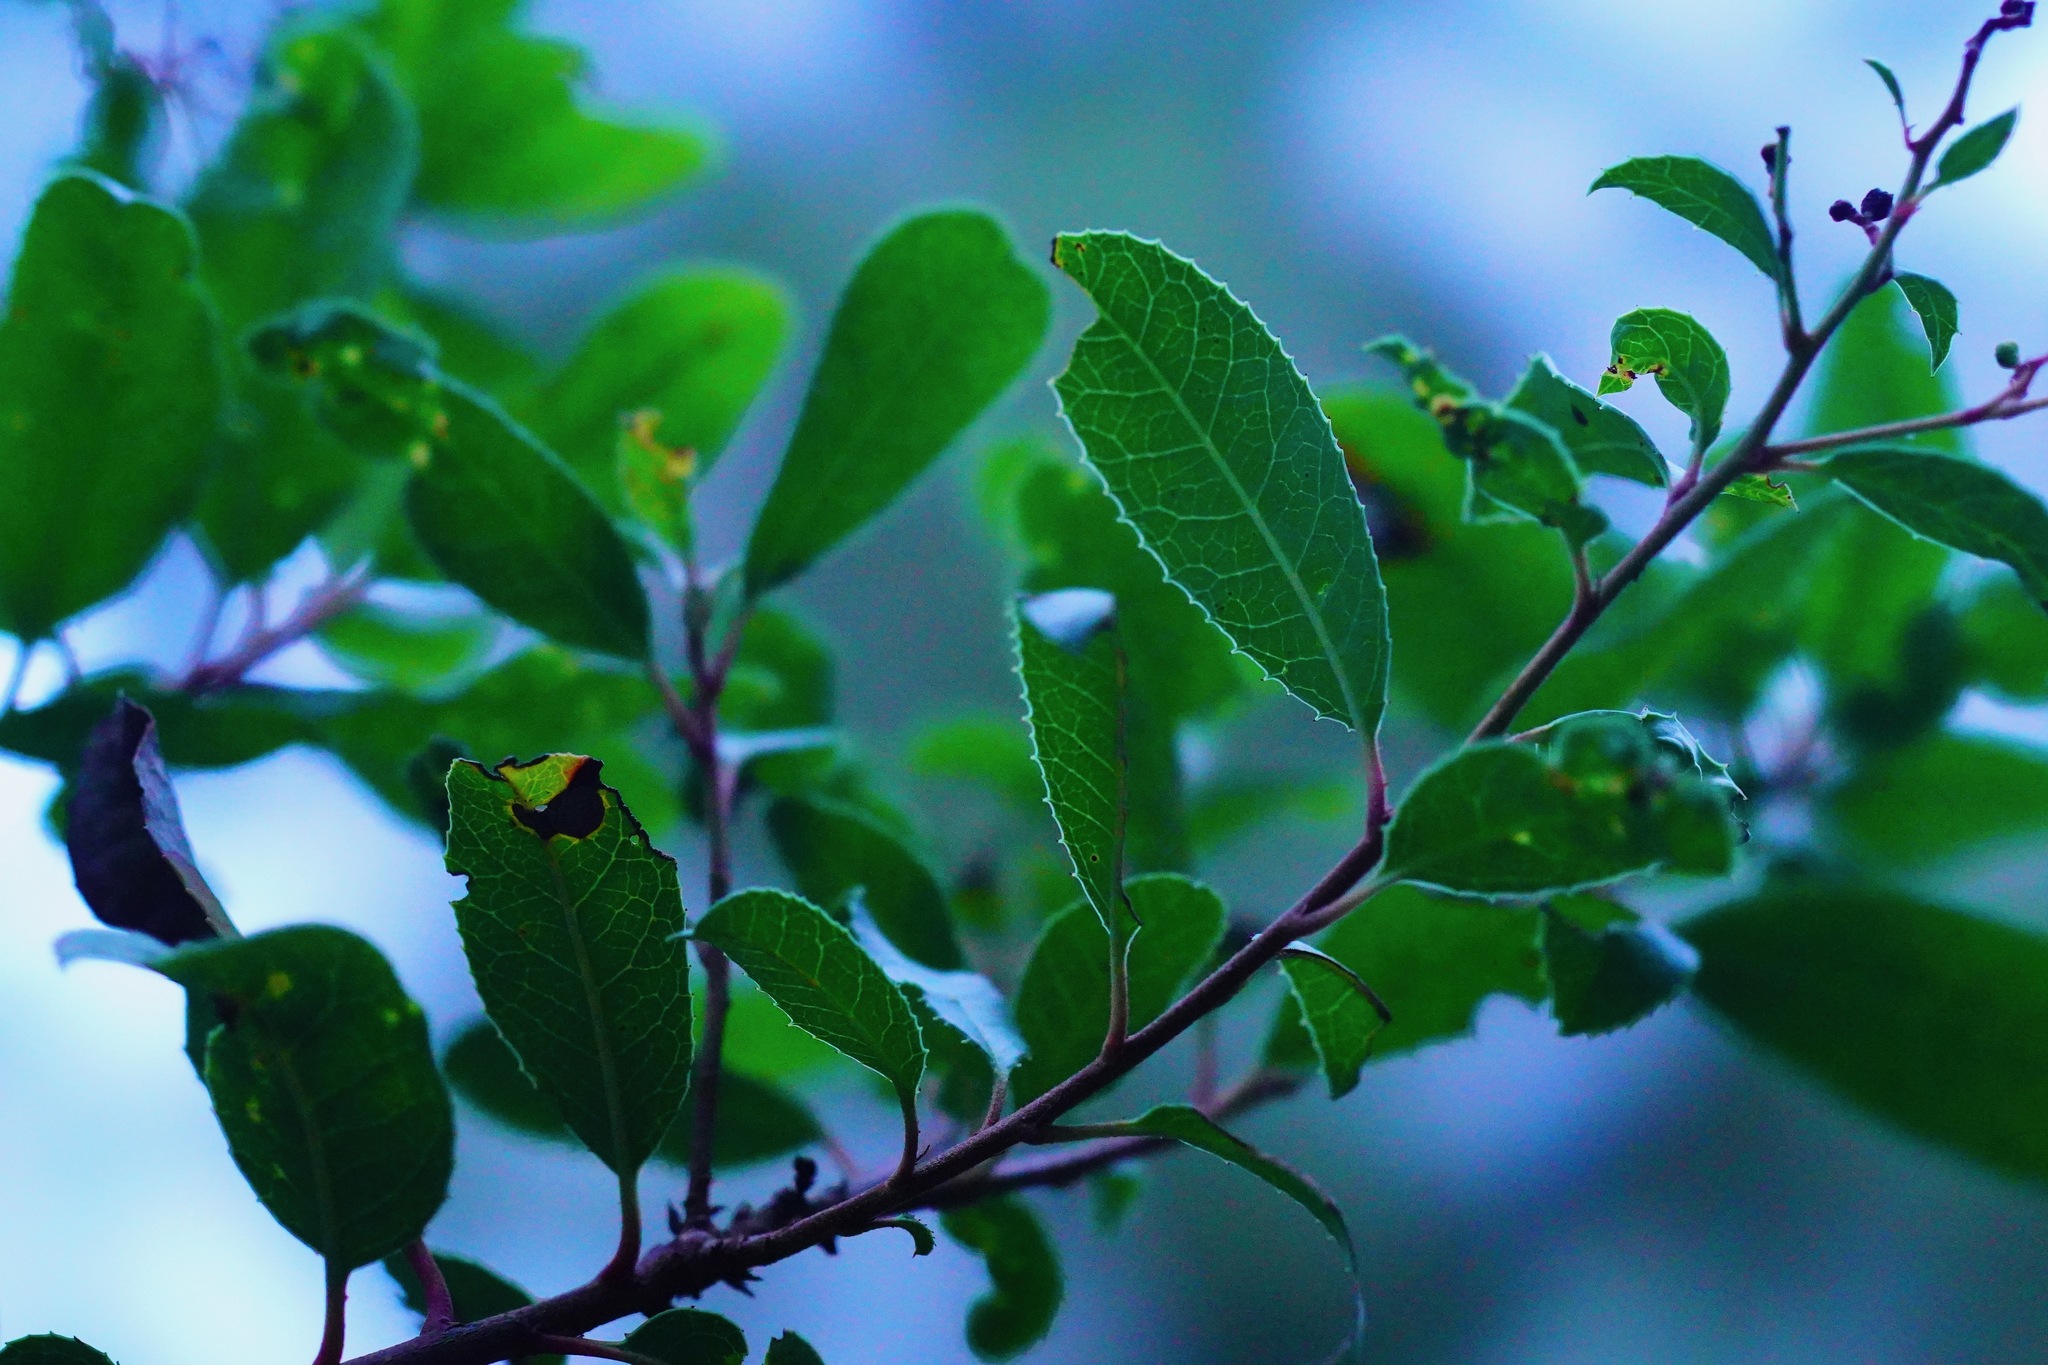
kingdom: Plantae
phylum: Tracheophyta
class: Magnoliopsida
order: Rosales
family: Rosaceae
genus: Heteromeles
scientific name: Heteromeles arbutifolia
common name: California-holly
